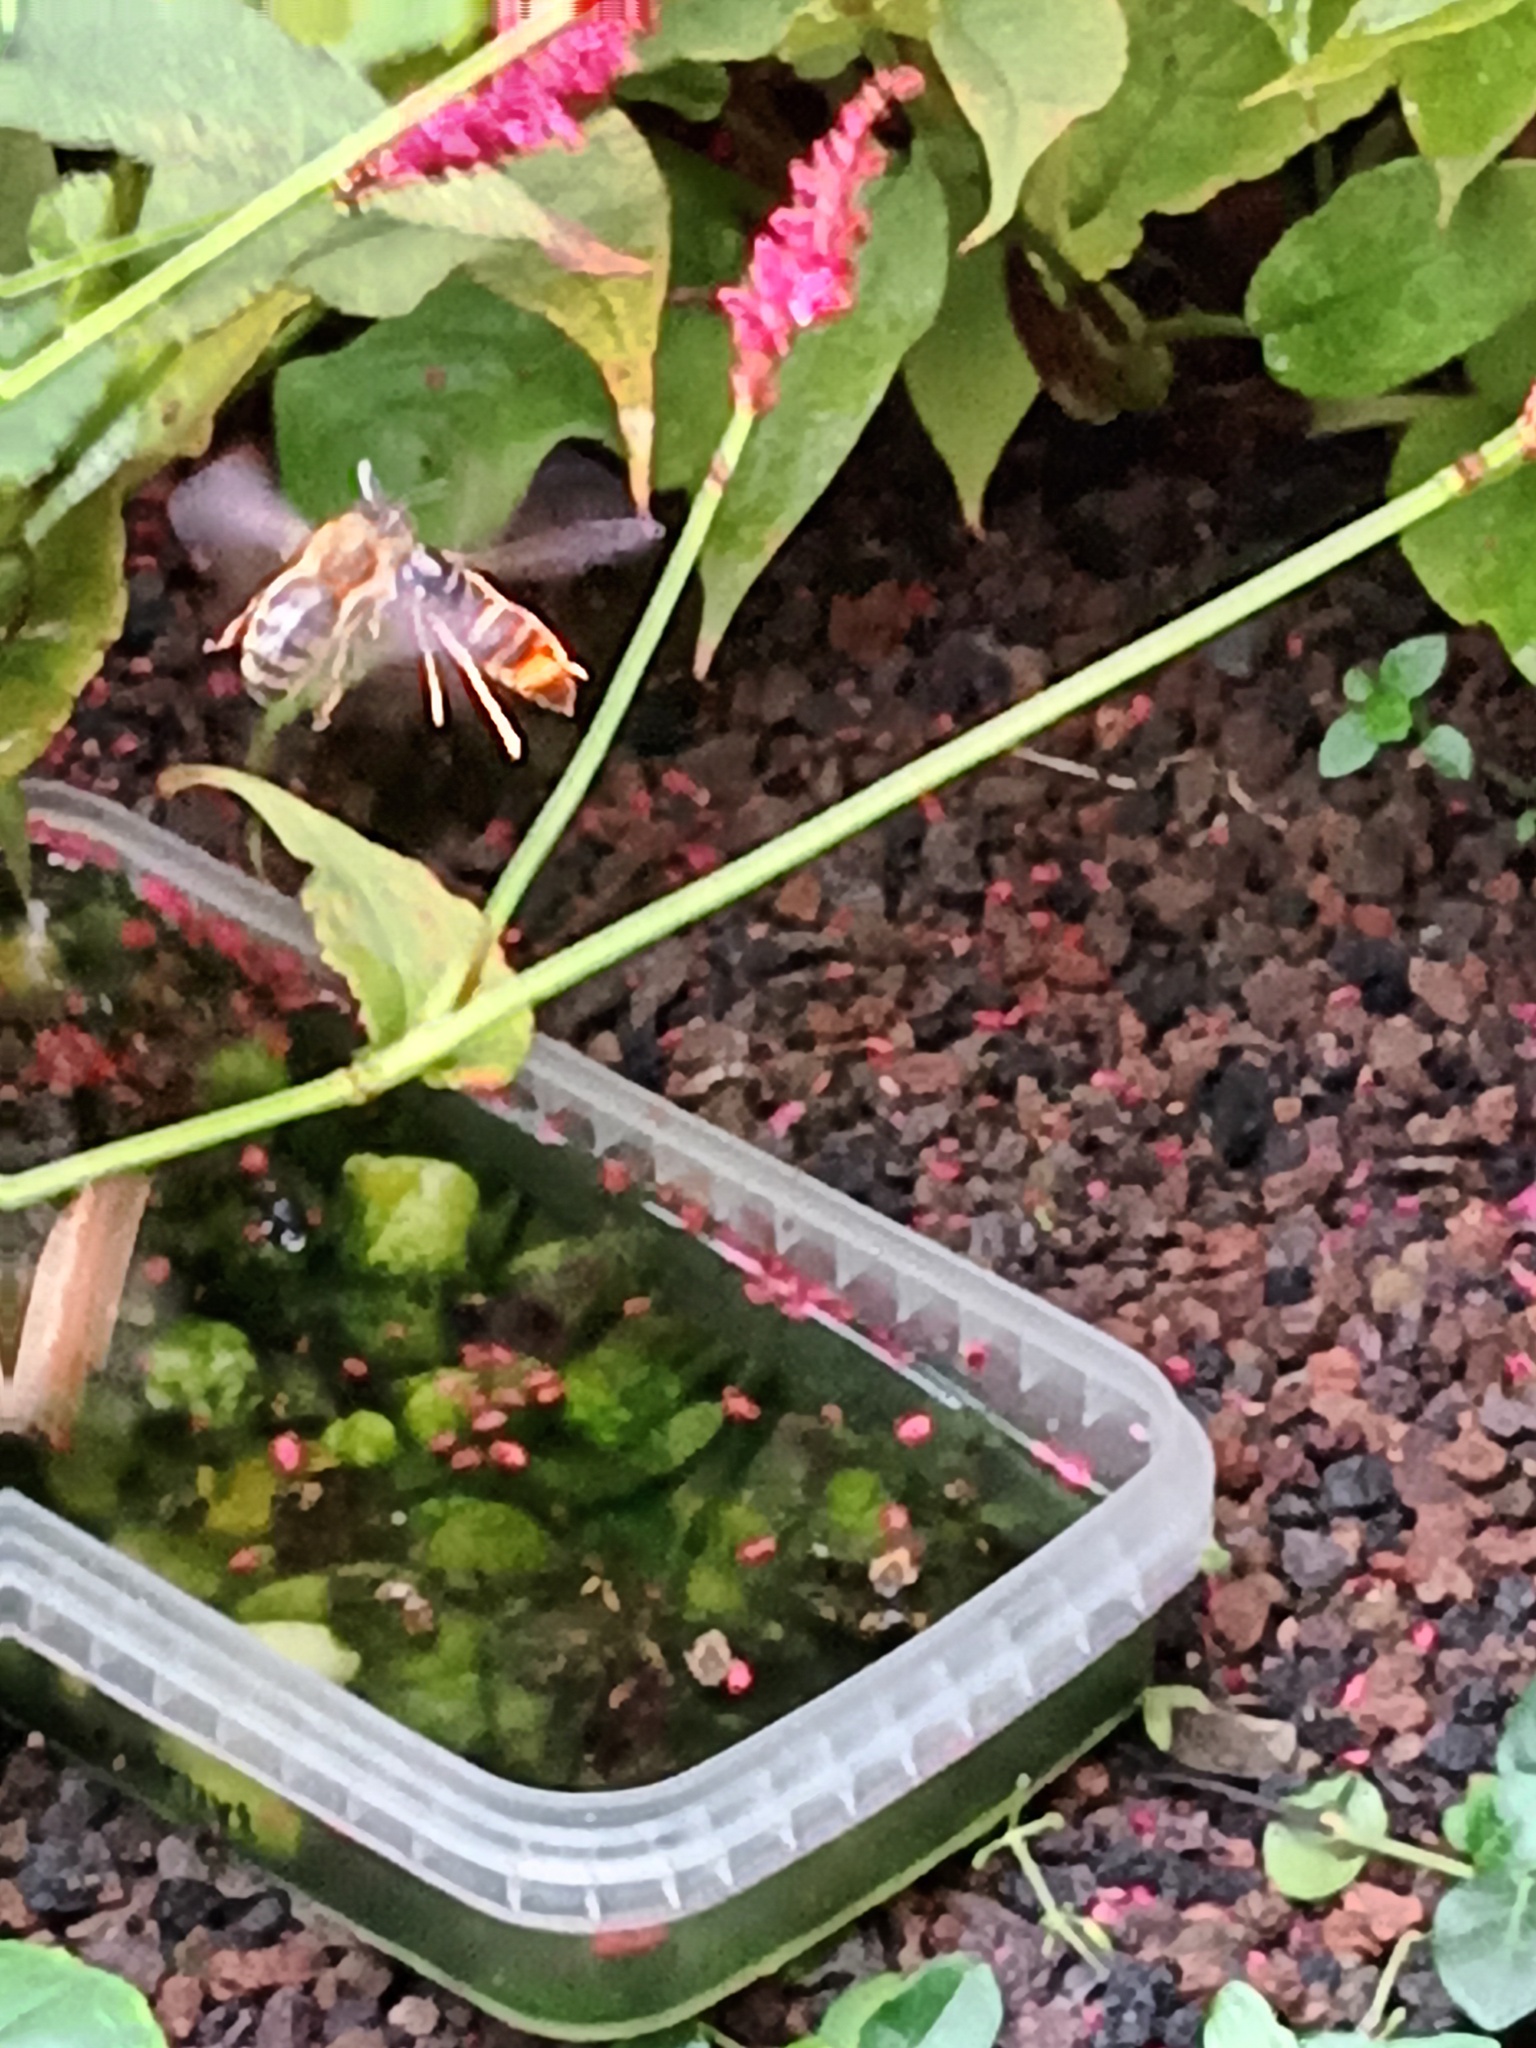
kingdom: Animalia
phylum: Arthropoda
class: Insecta
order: Hymenoptera
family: Vespidae
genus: Vespa
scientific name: Vespa velutina
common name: Asian hornet
